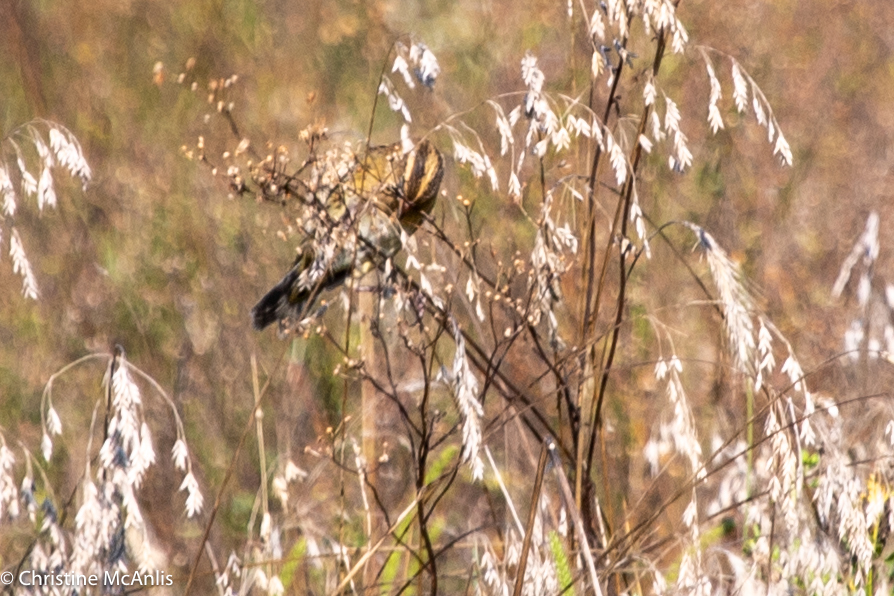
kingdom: Animalia
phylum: Chordata
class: Aves
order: Passeriformes
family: Icteridae
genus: Dolichonyx
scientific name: Dolichonyx oryzivorus
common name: Bobolink
